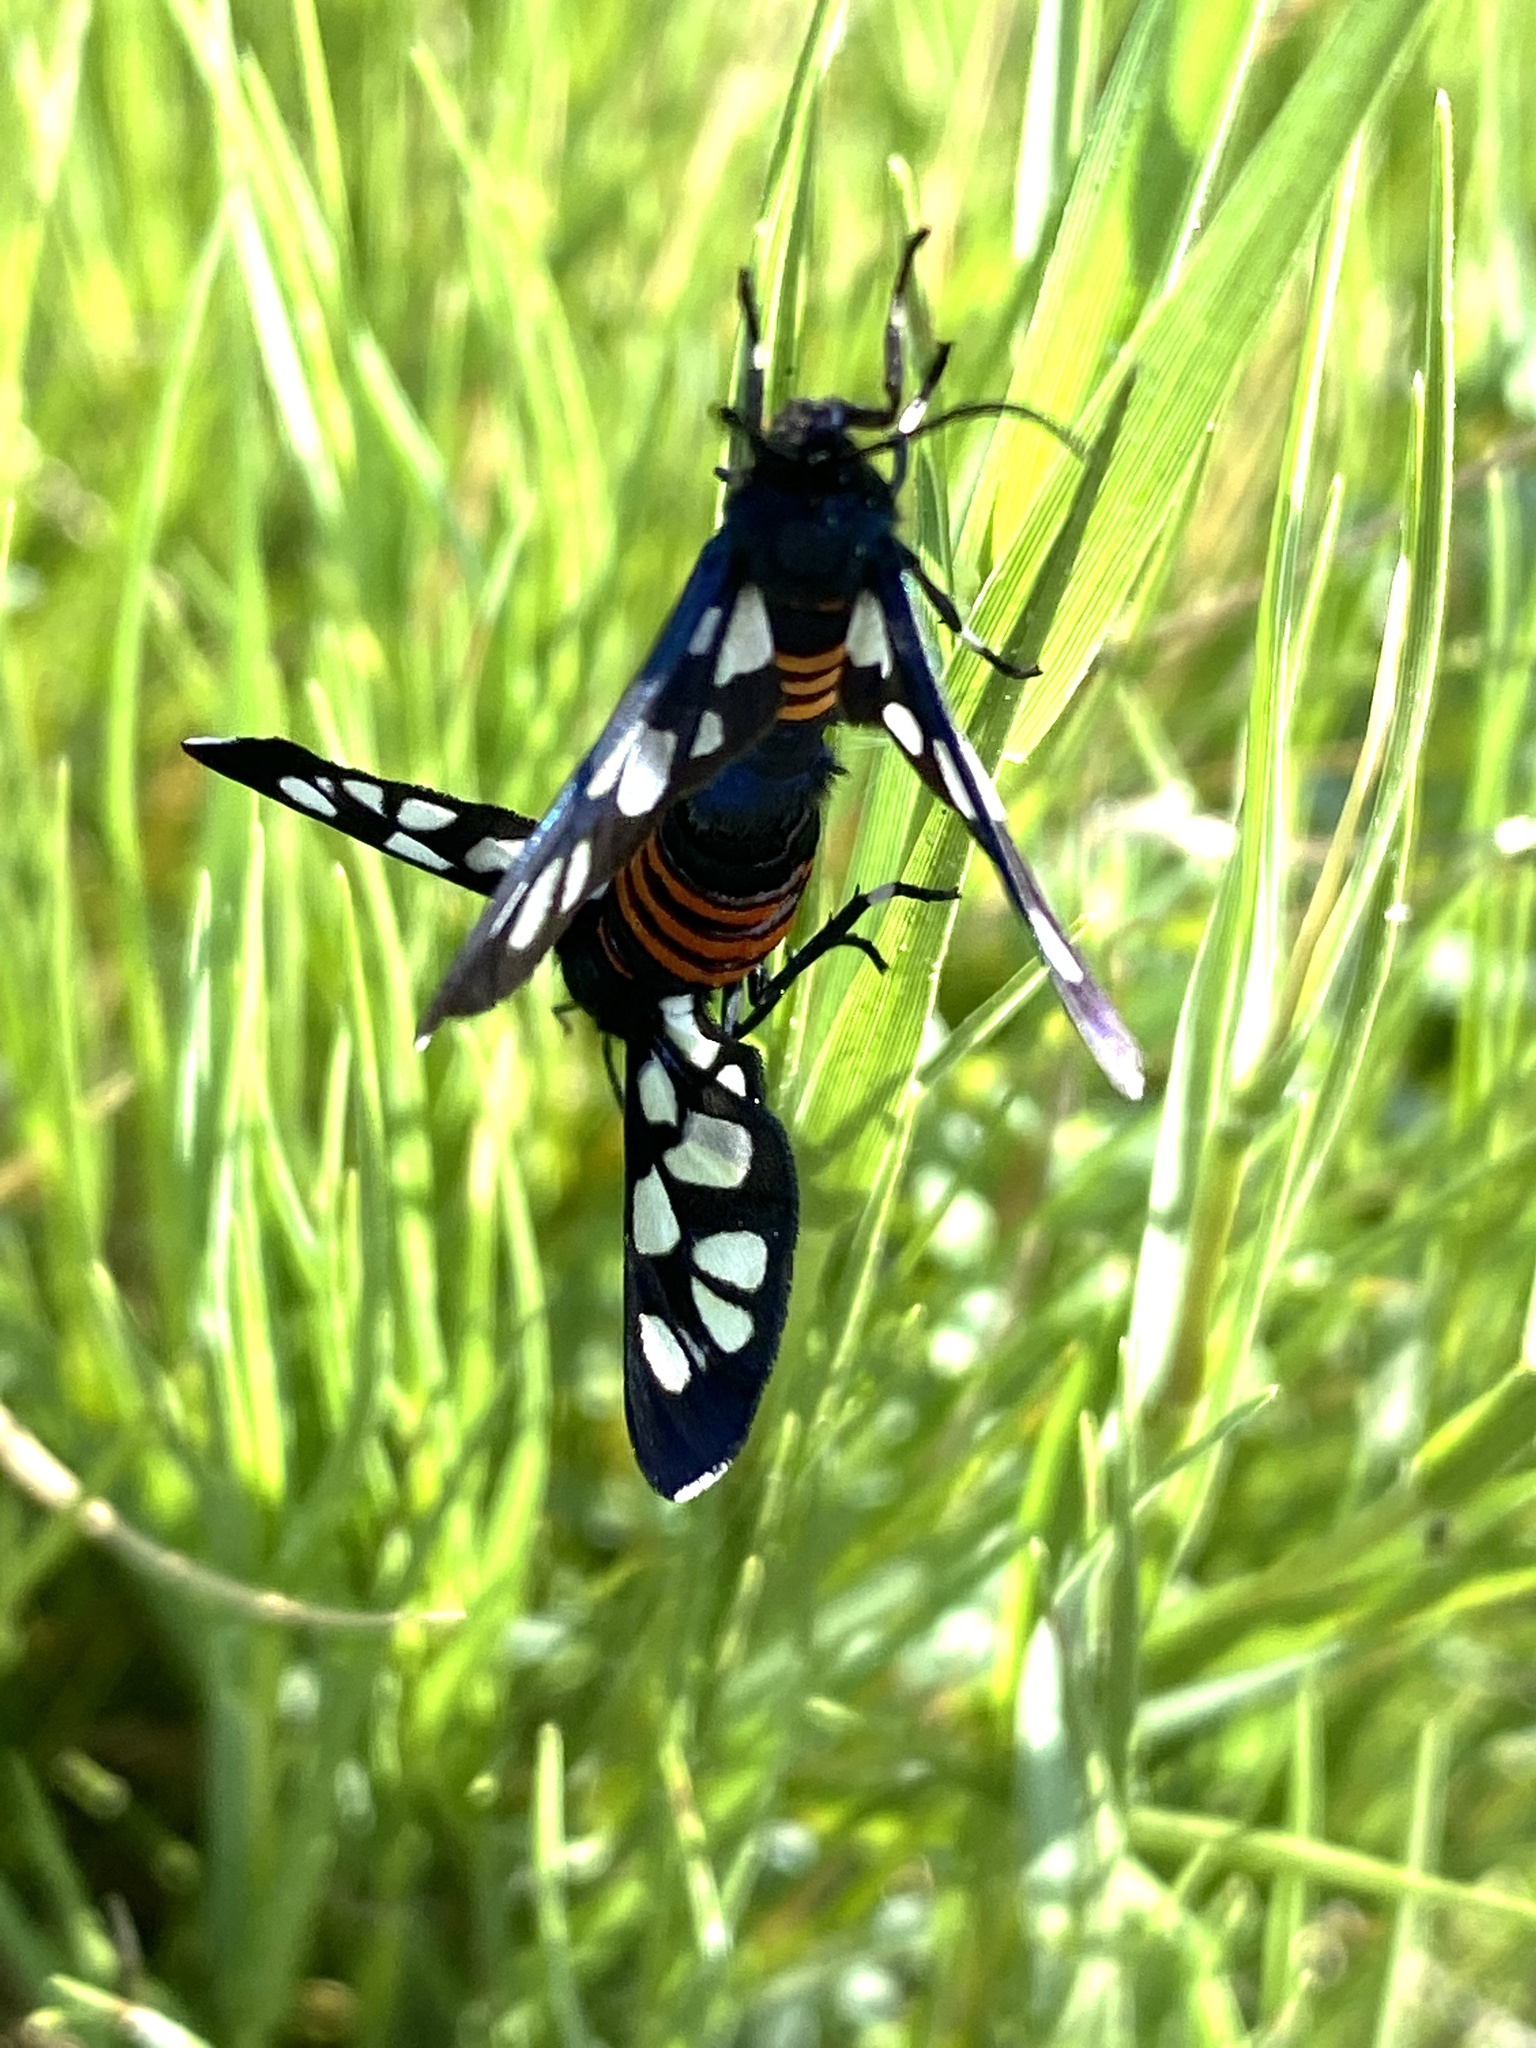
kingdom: Animalia
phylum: Arthropoda
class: Insecta
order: Lepidoptera
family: Erebidae
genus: Amata
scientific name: Amata johanna
